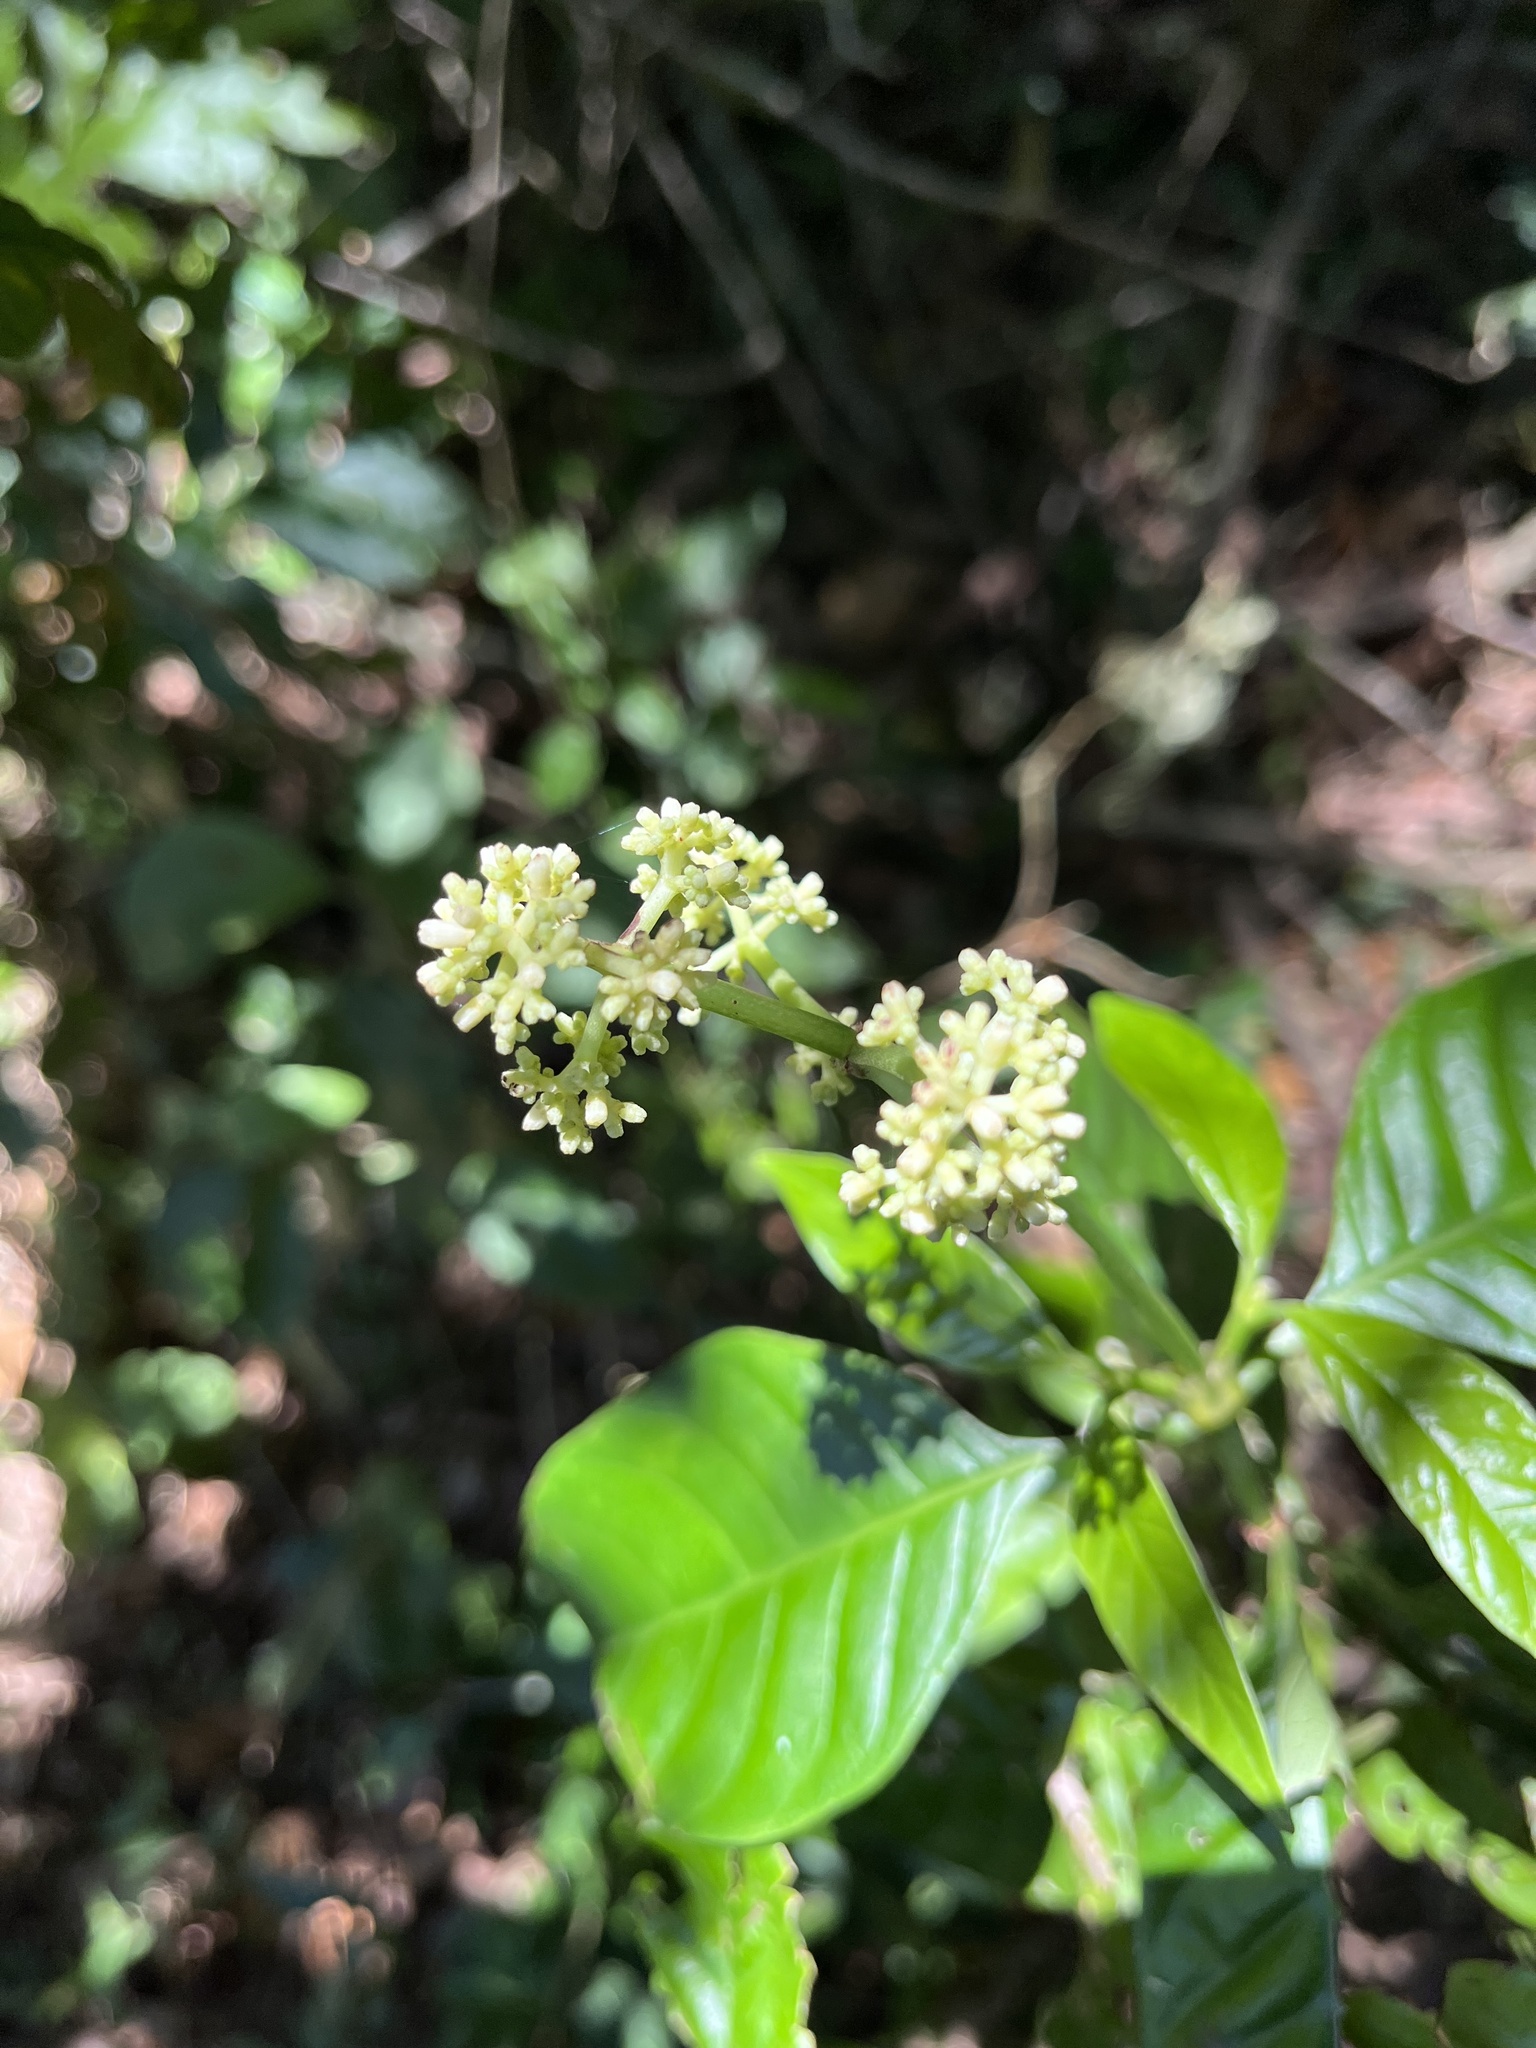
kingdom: Plantae
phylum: Tracheophyta
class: Magnoliopsida
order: Gentianales
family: Rubiaceae
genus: Psychotria
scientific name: Psychotria carthagenensis
